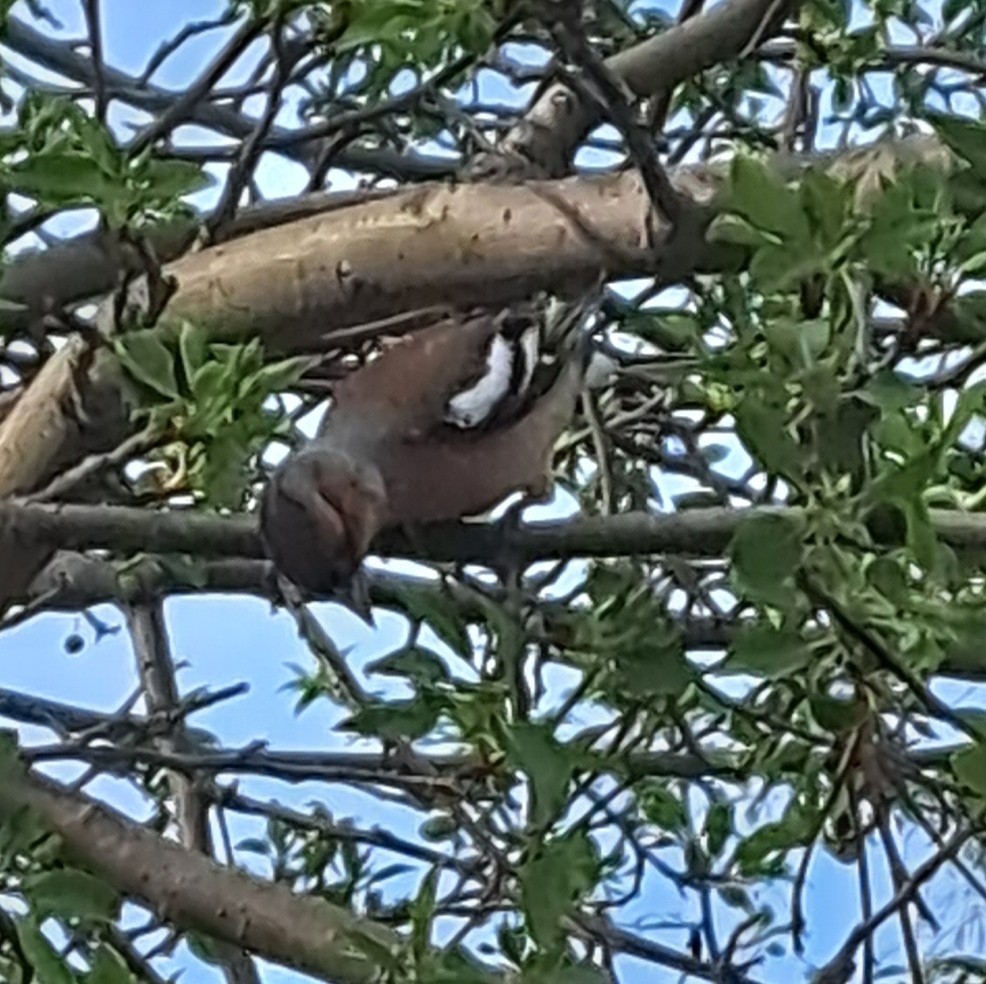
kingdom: Animalia
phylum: Chordata
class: Aves
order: Passeriformes
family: Fringillidae
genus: Fringilla
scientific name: Fringilla coelebs
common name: Common chaffinch
